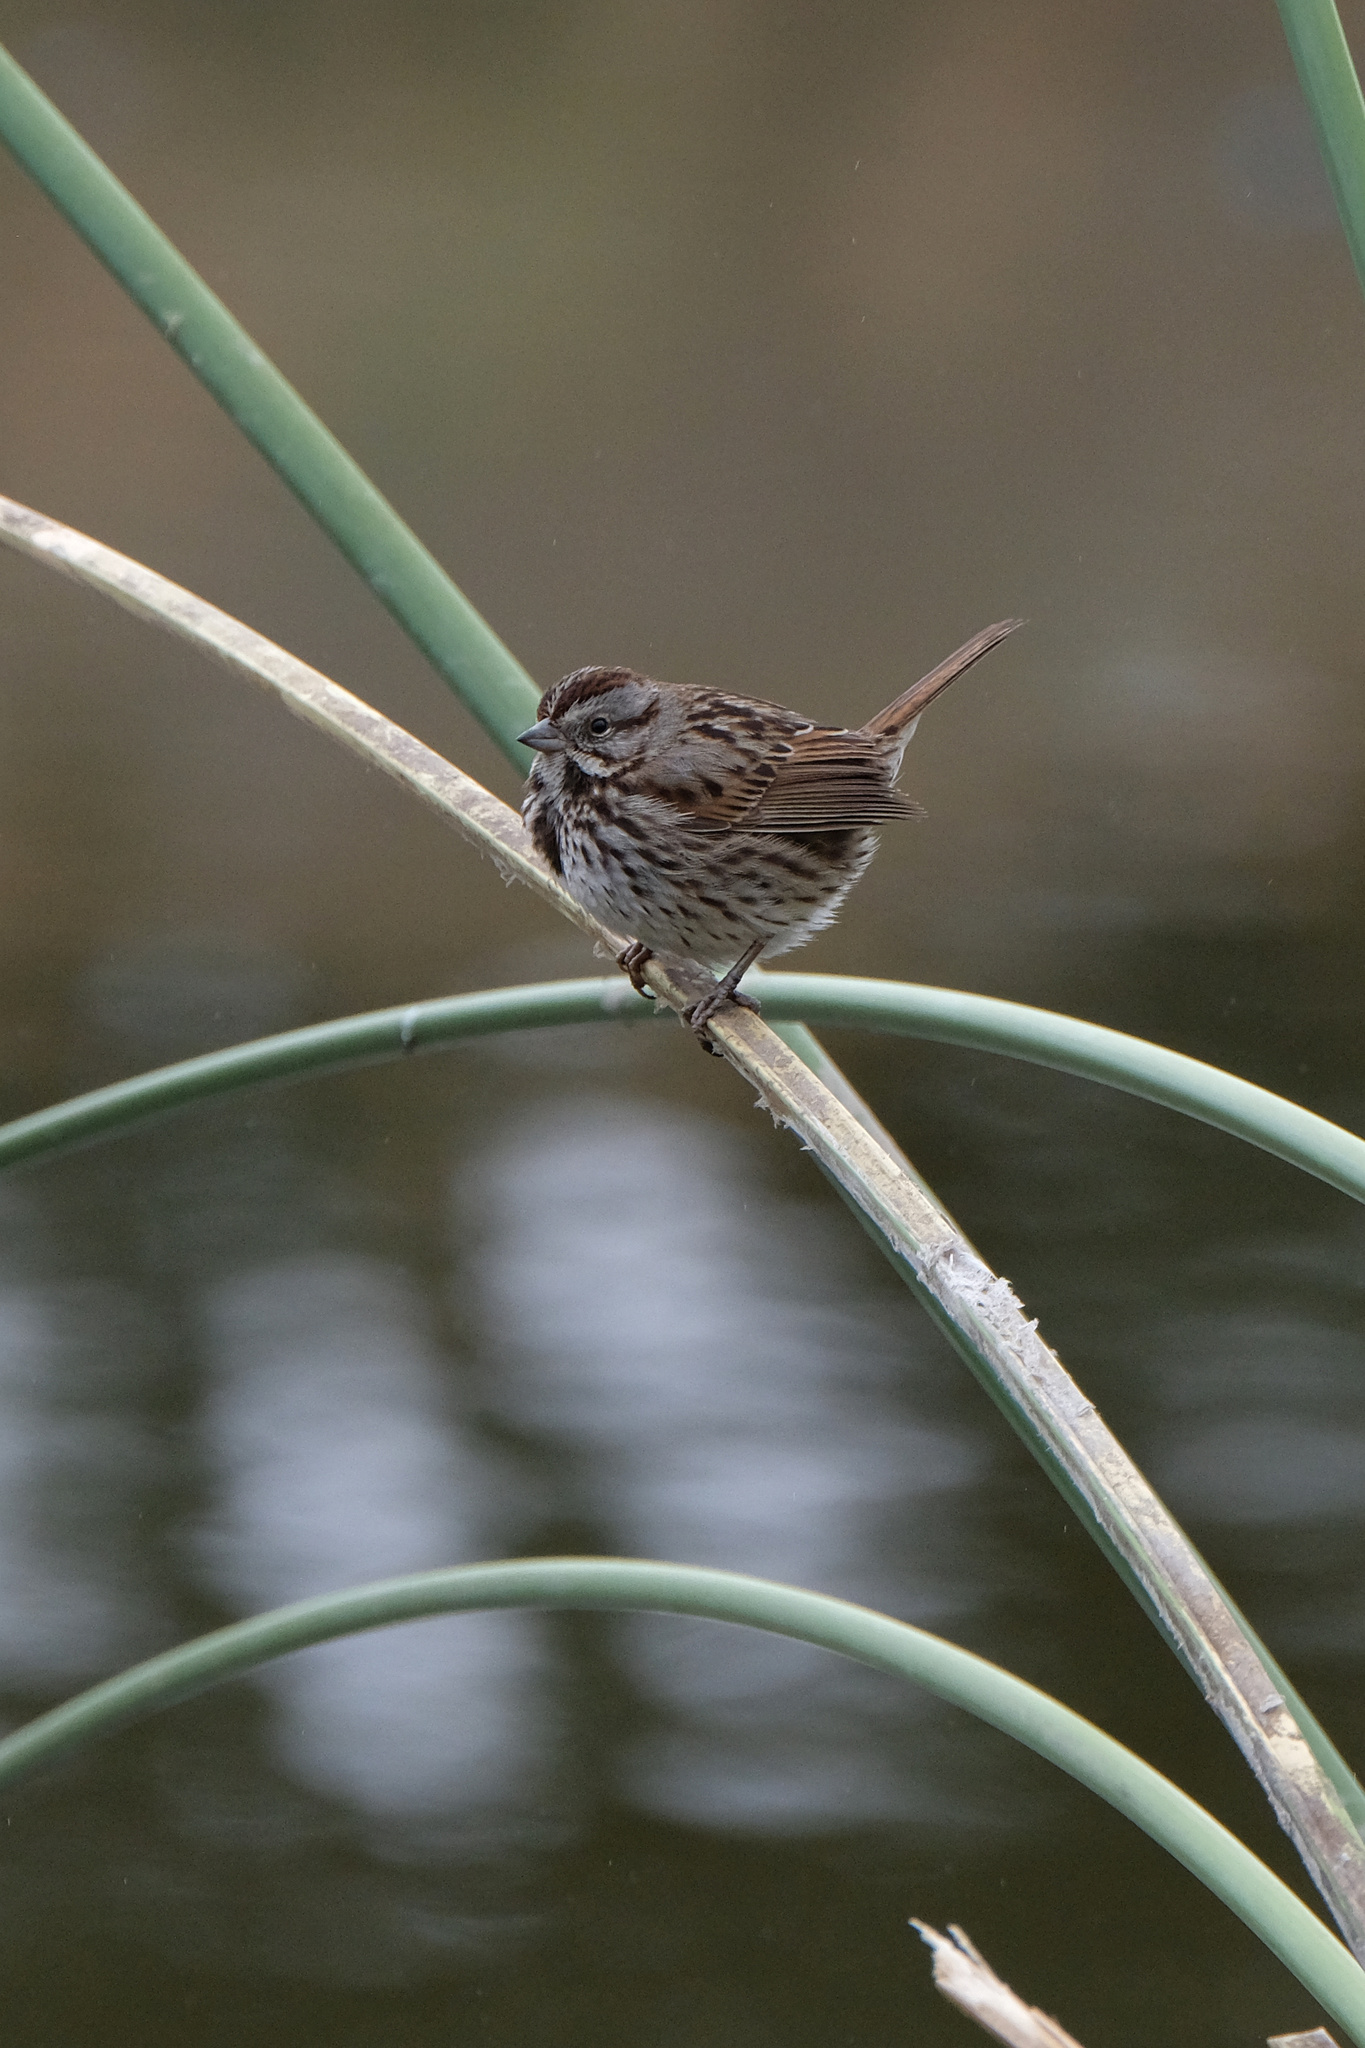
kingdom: Animalia
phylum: Chordata
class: Aves
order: Passeriformes
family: Passerellidae
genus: Melospiza
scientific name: Melospiza melodia
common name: Song sparrow
